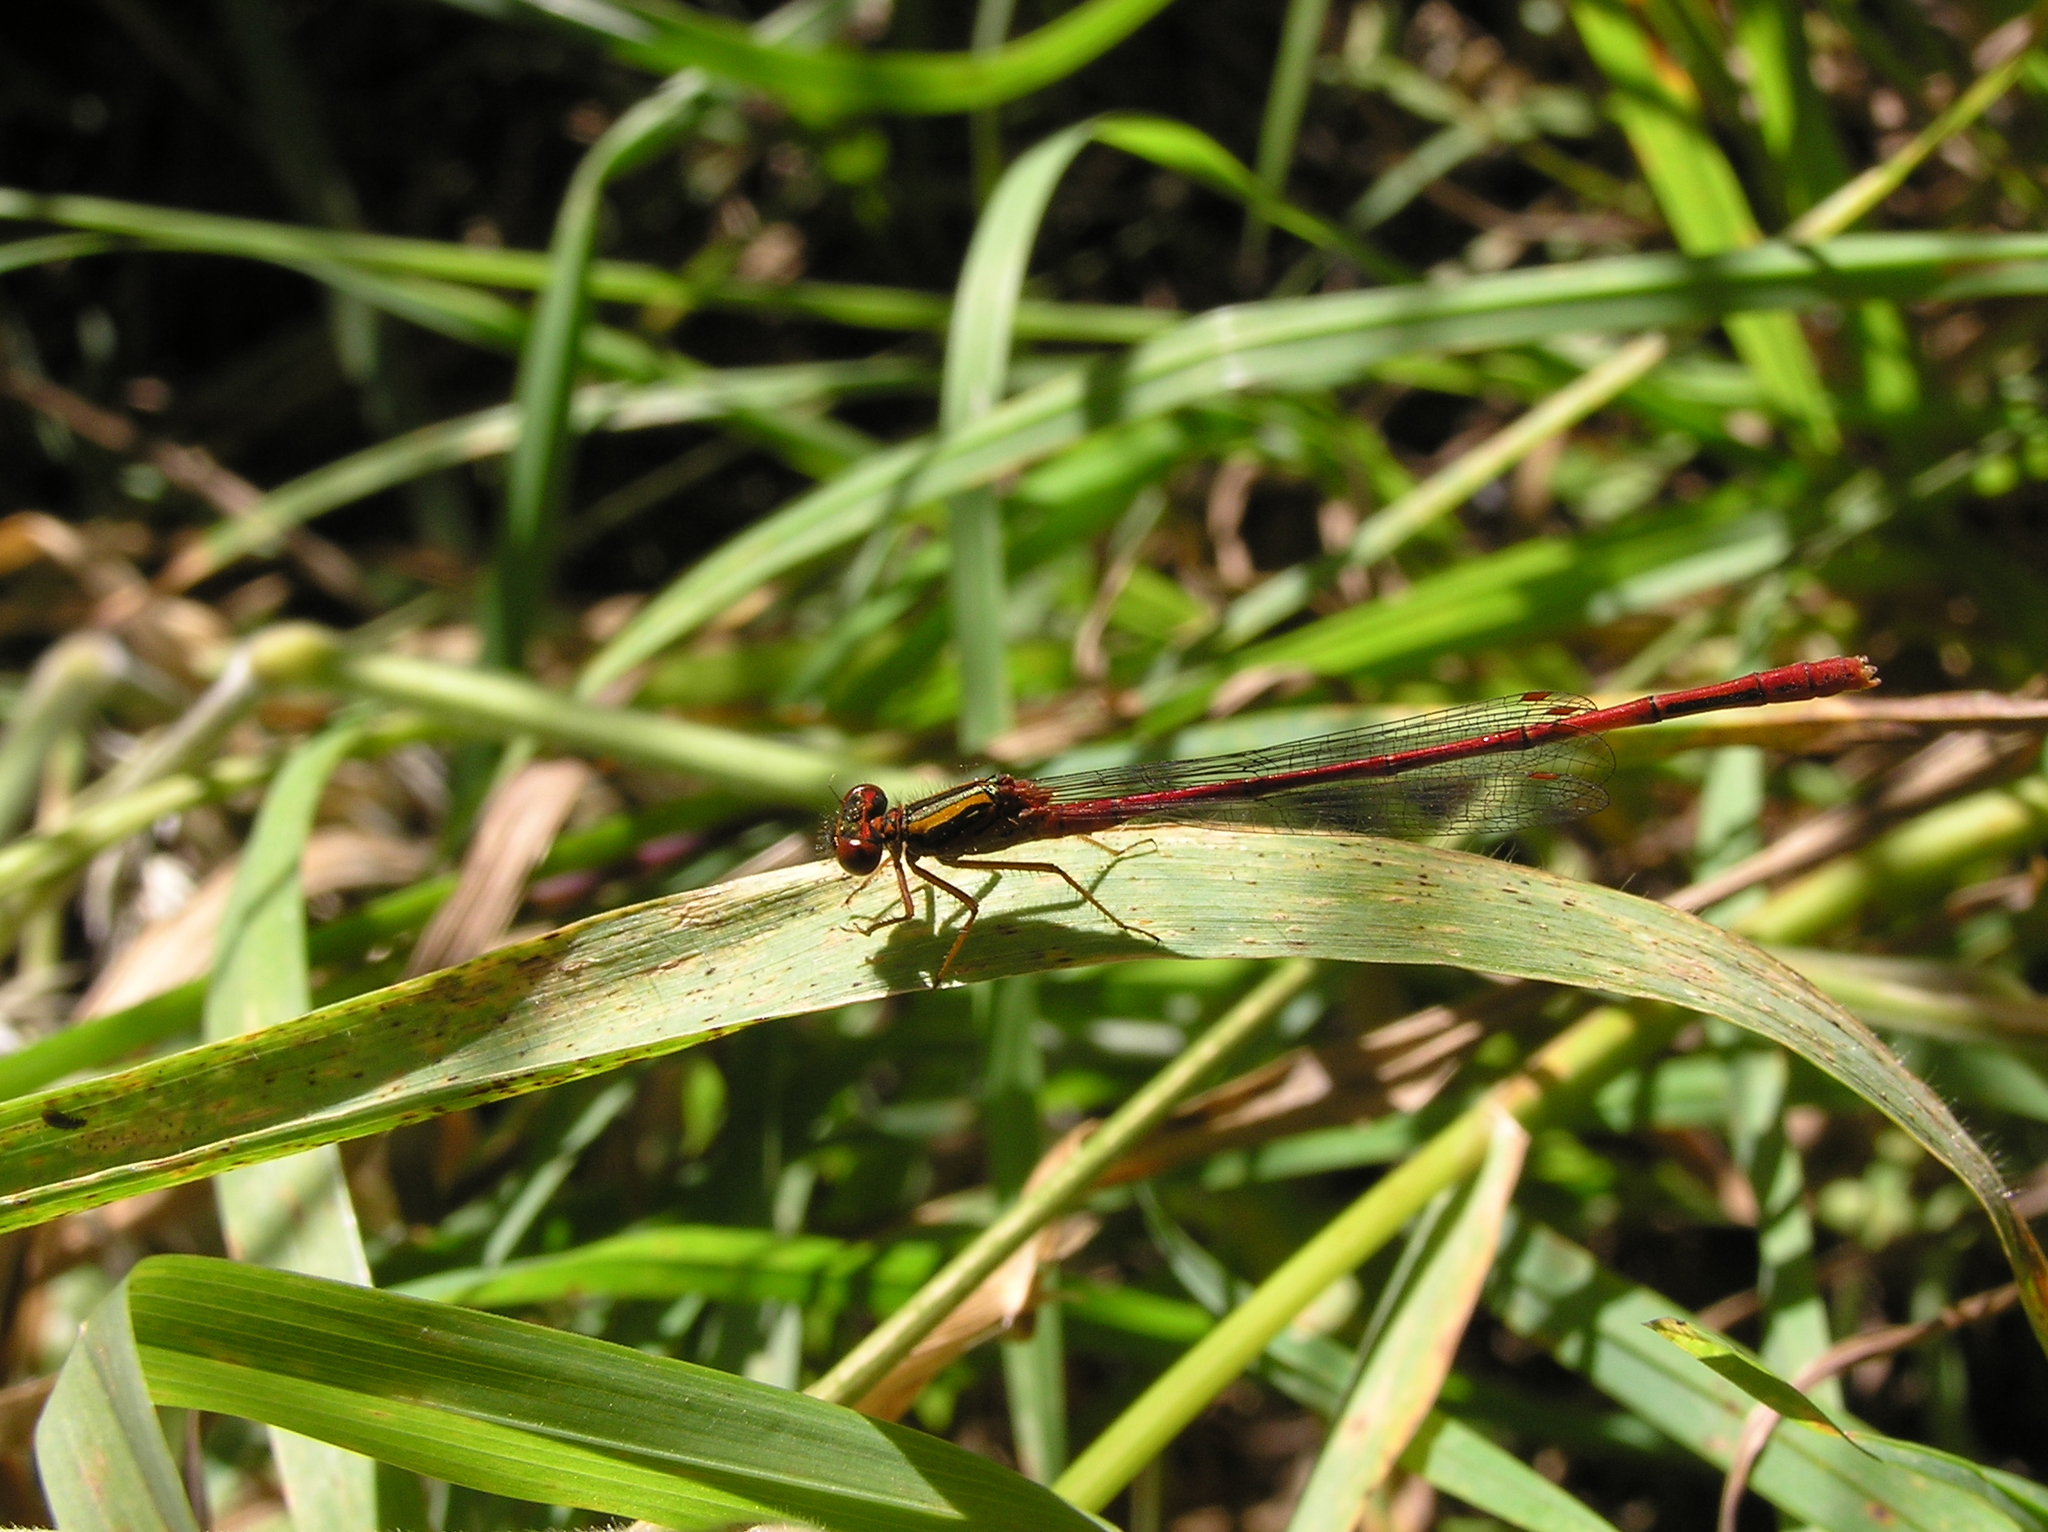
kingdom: Animalia
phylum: Arthropoda
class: Insecta
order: Odonata
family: Coenagrionidae
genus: Xanthocnemis
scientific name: Xanthocnemis zealandica
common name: Common redcoat damselfly
